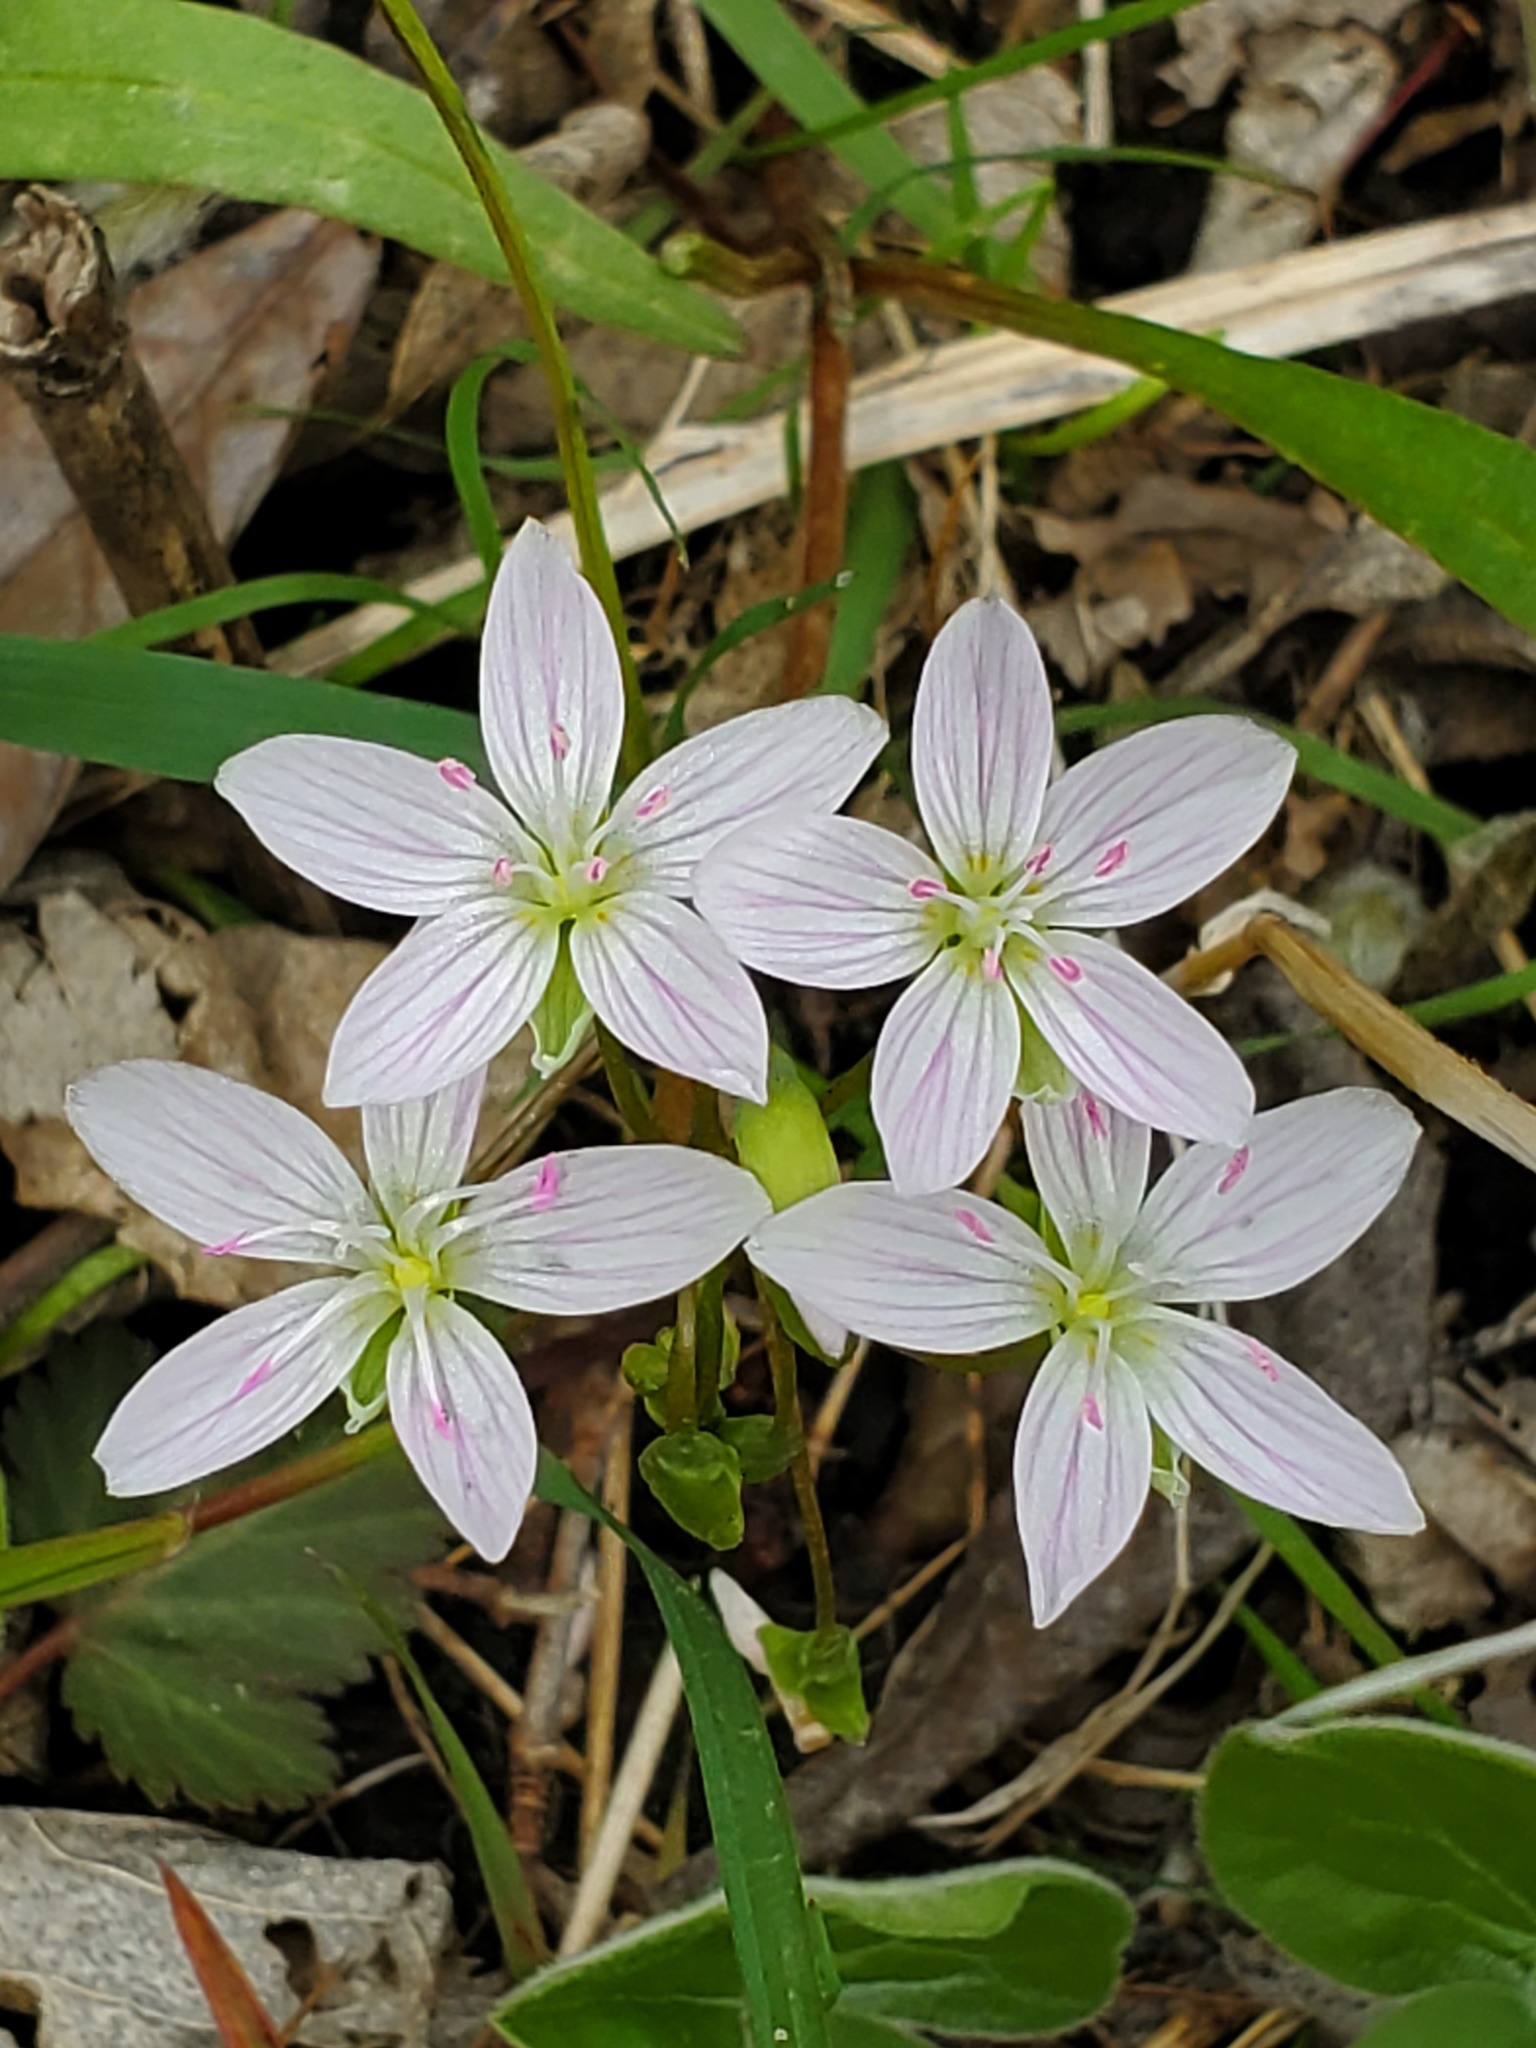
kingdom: Plantae
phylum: Tracheophyta
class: Magnoliopsida
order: Caryophyllales
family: Montiaceae
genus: Claytonia
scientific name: Claytonia virginica
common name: Virginia springbeauty
